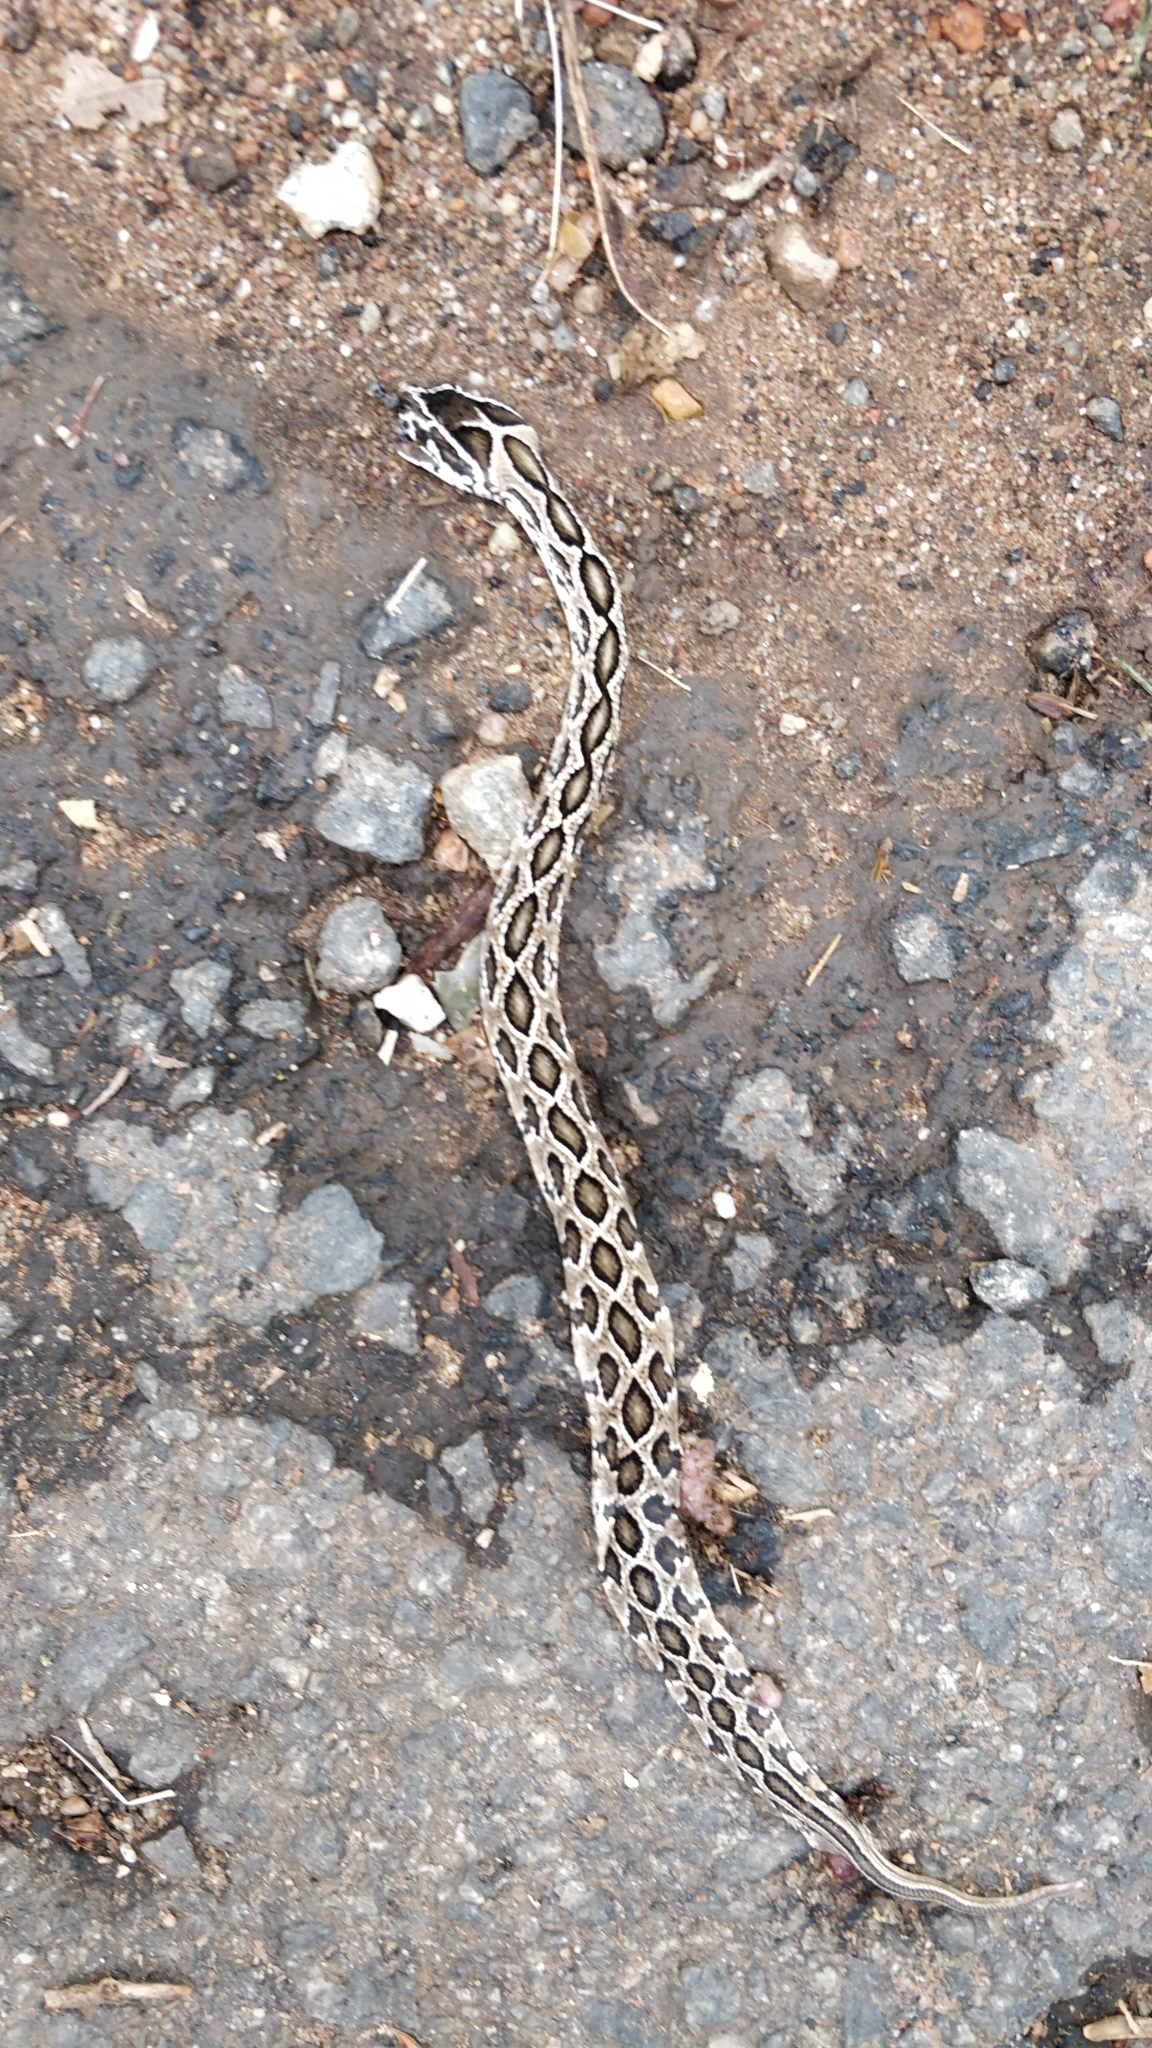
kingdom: Animalia
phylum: Chordata
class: Squamata
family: Viperidae
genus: Daboia
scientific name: Daboia russelii
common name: Western russel’s viper
